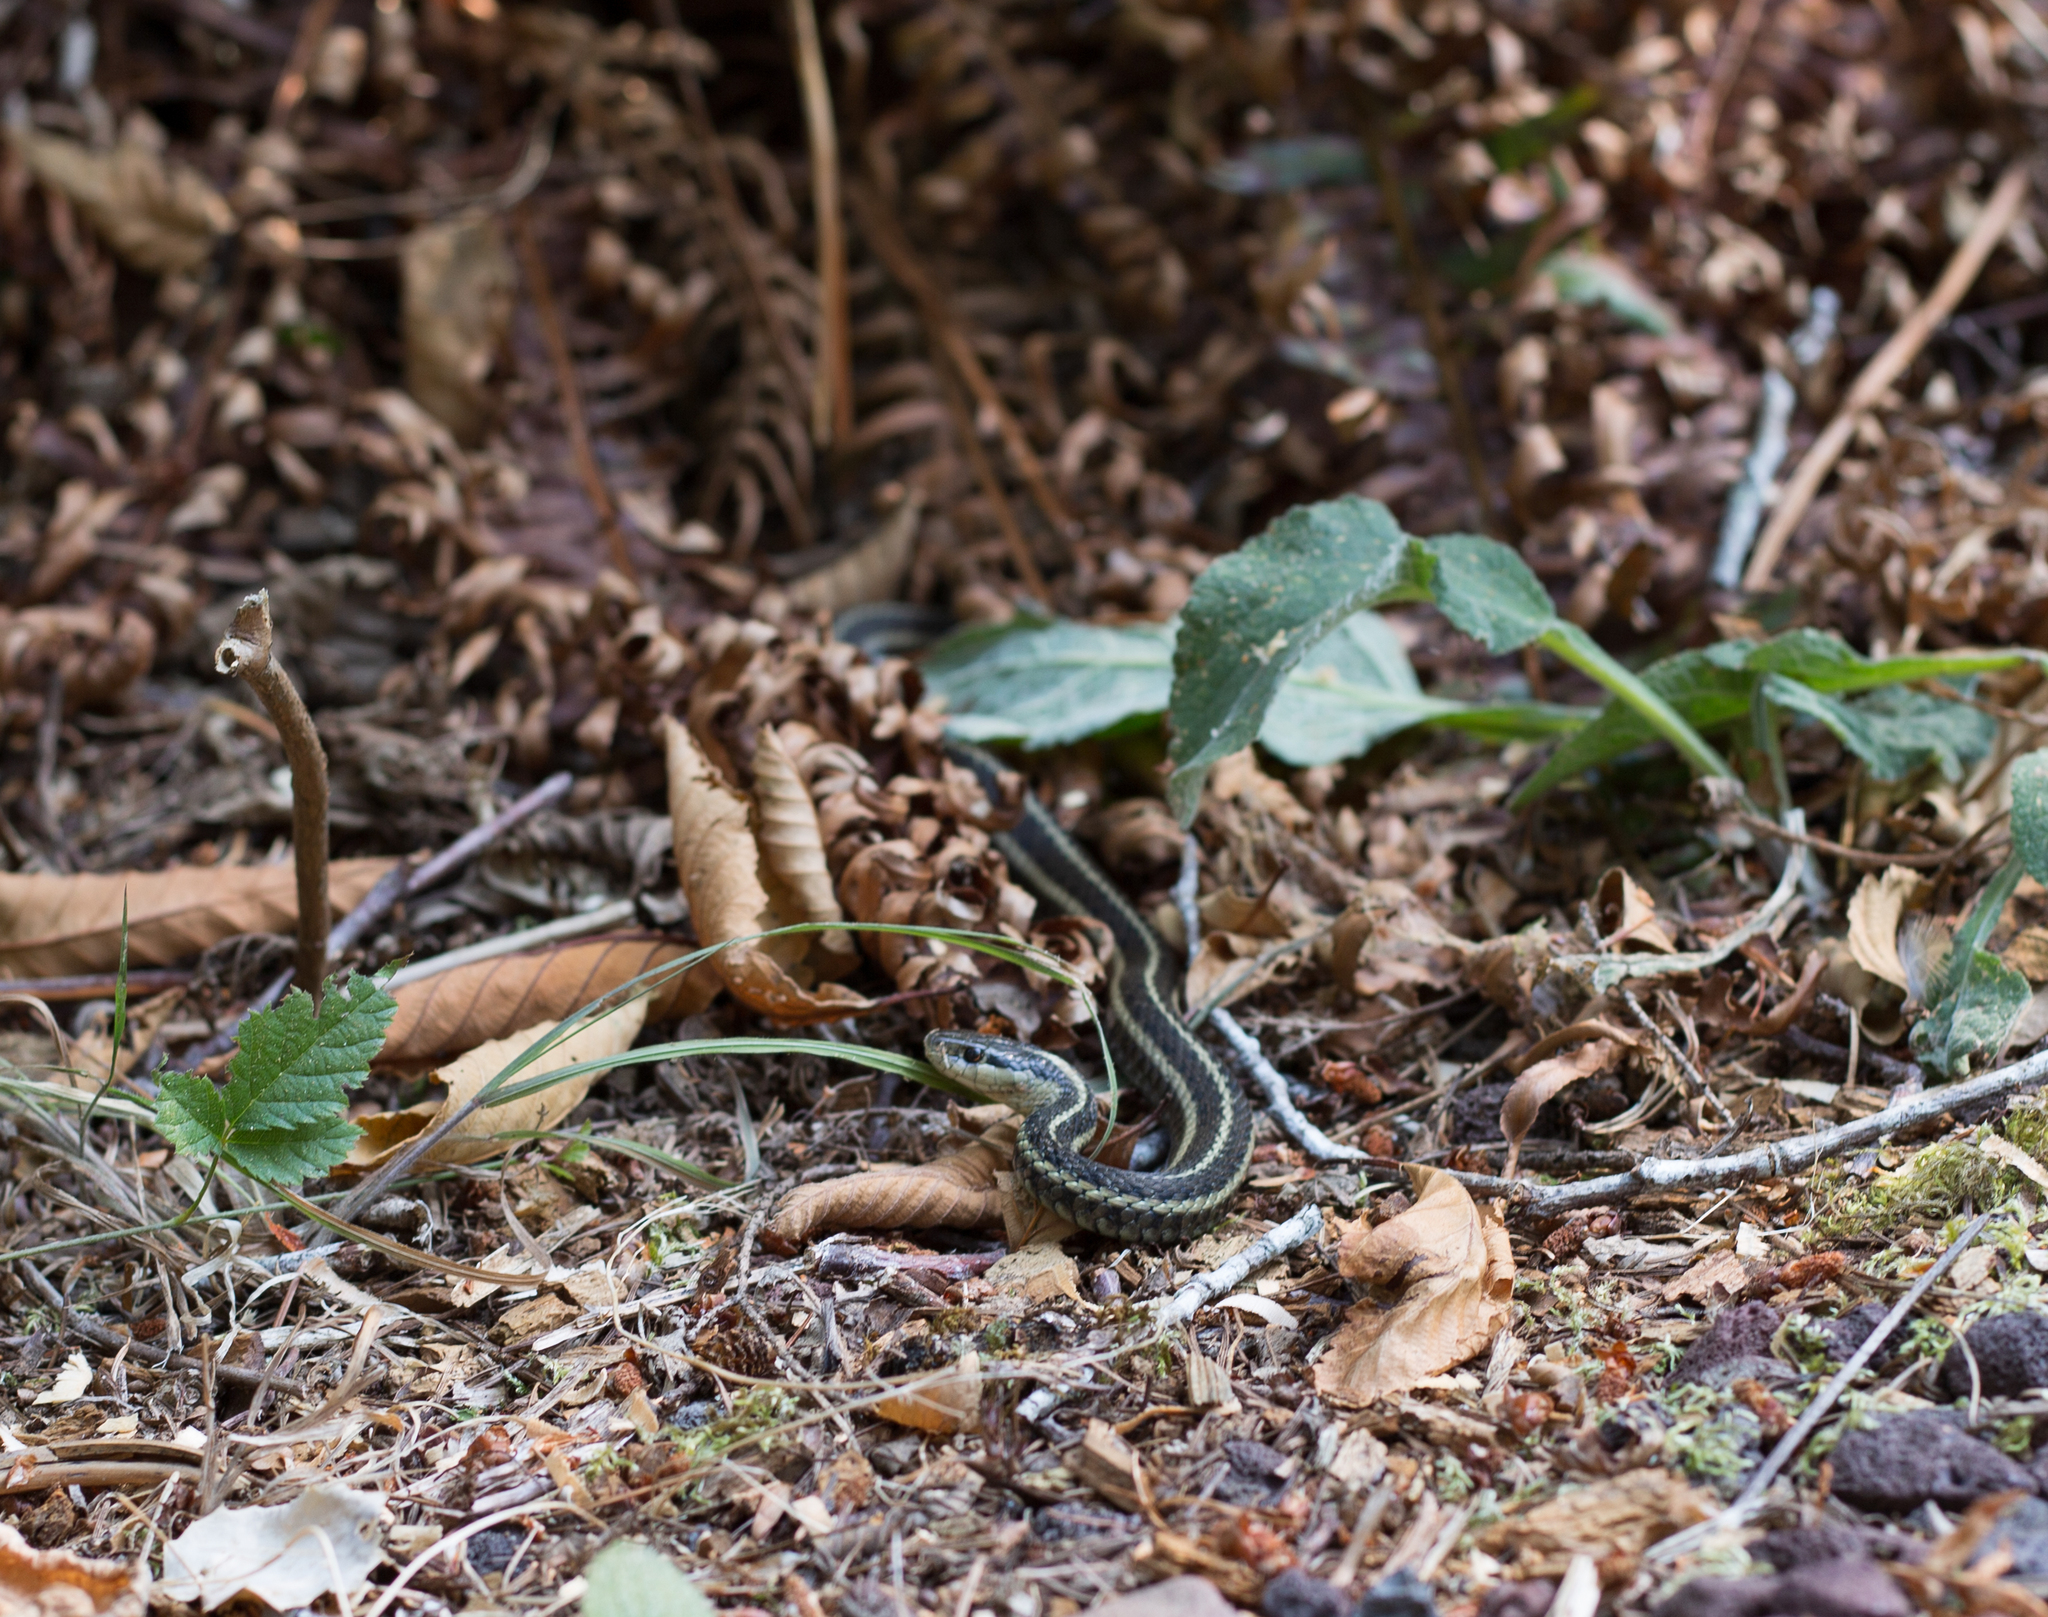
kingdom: Animalia
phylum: Chordata
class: Squamata
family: Colubridae
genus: Thamnophis
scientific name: Thamnophis ordinoides
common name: Northwestern garter snake
